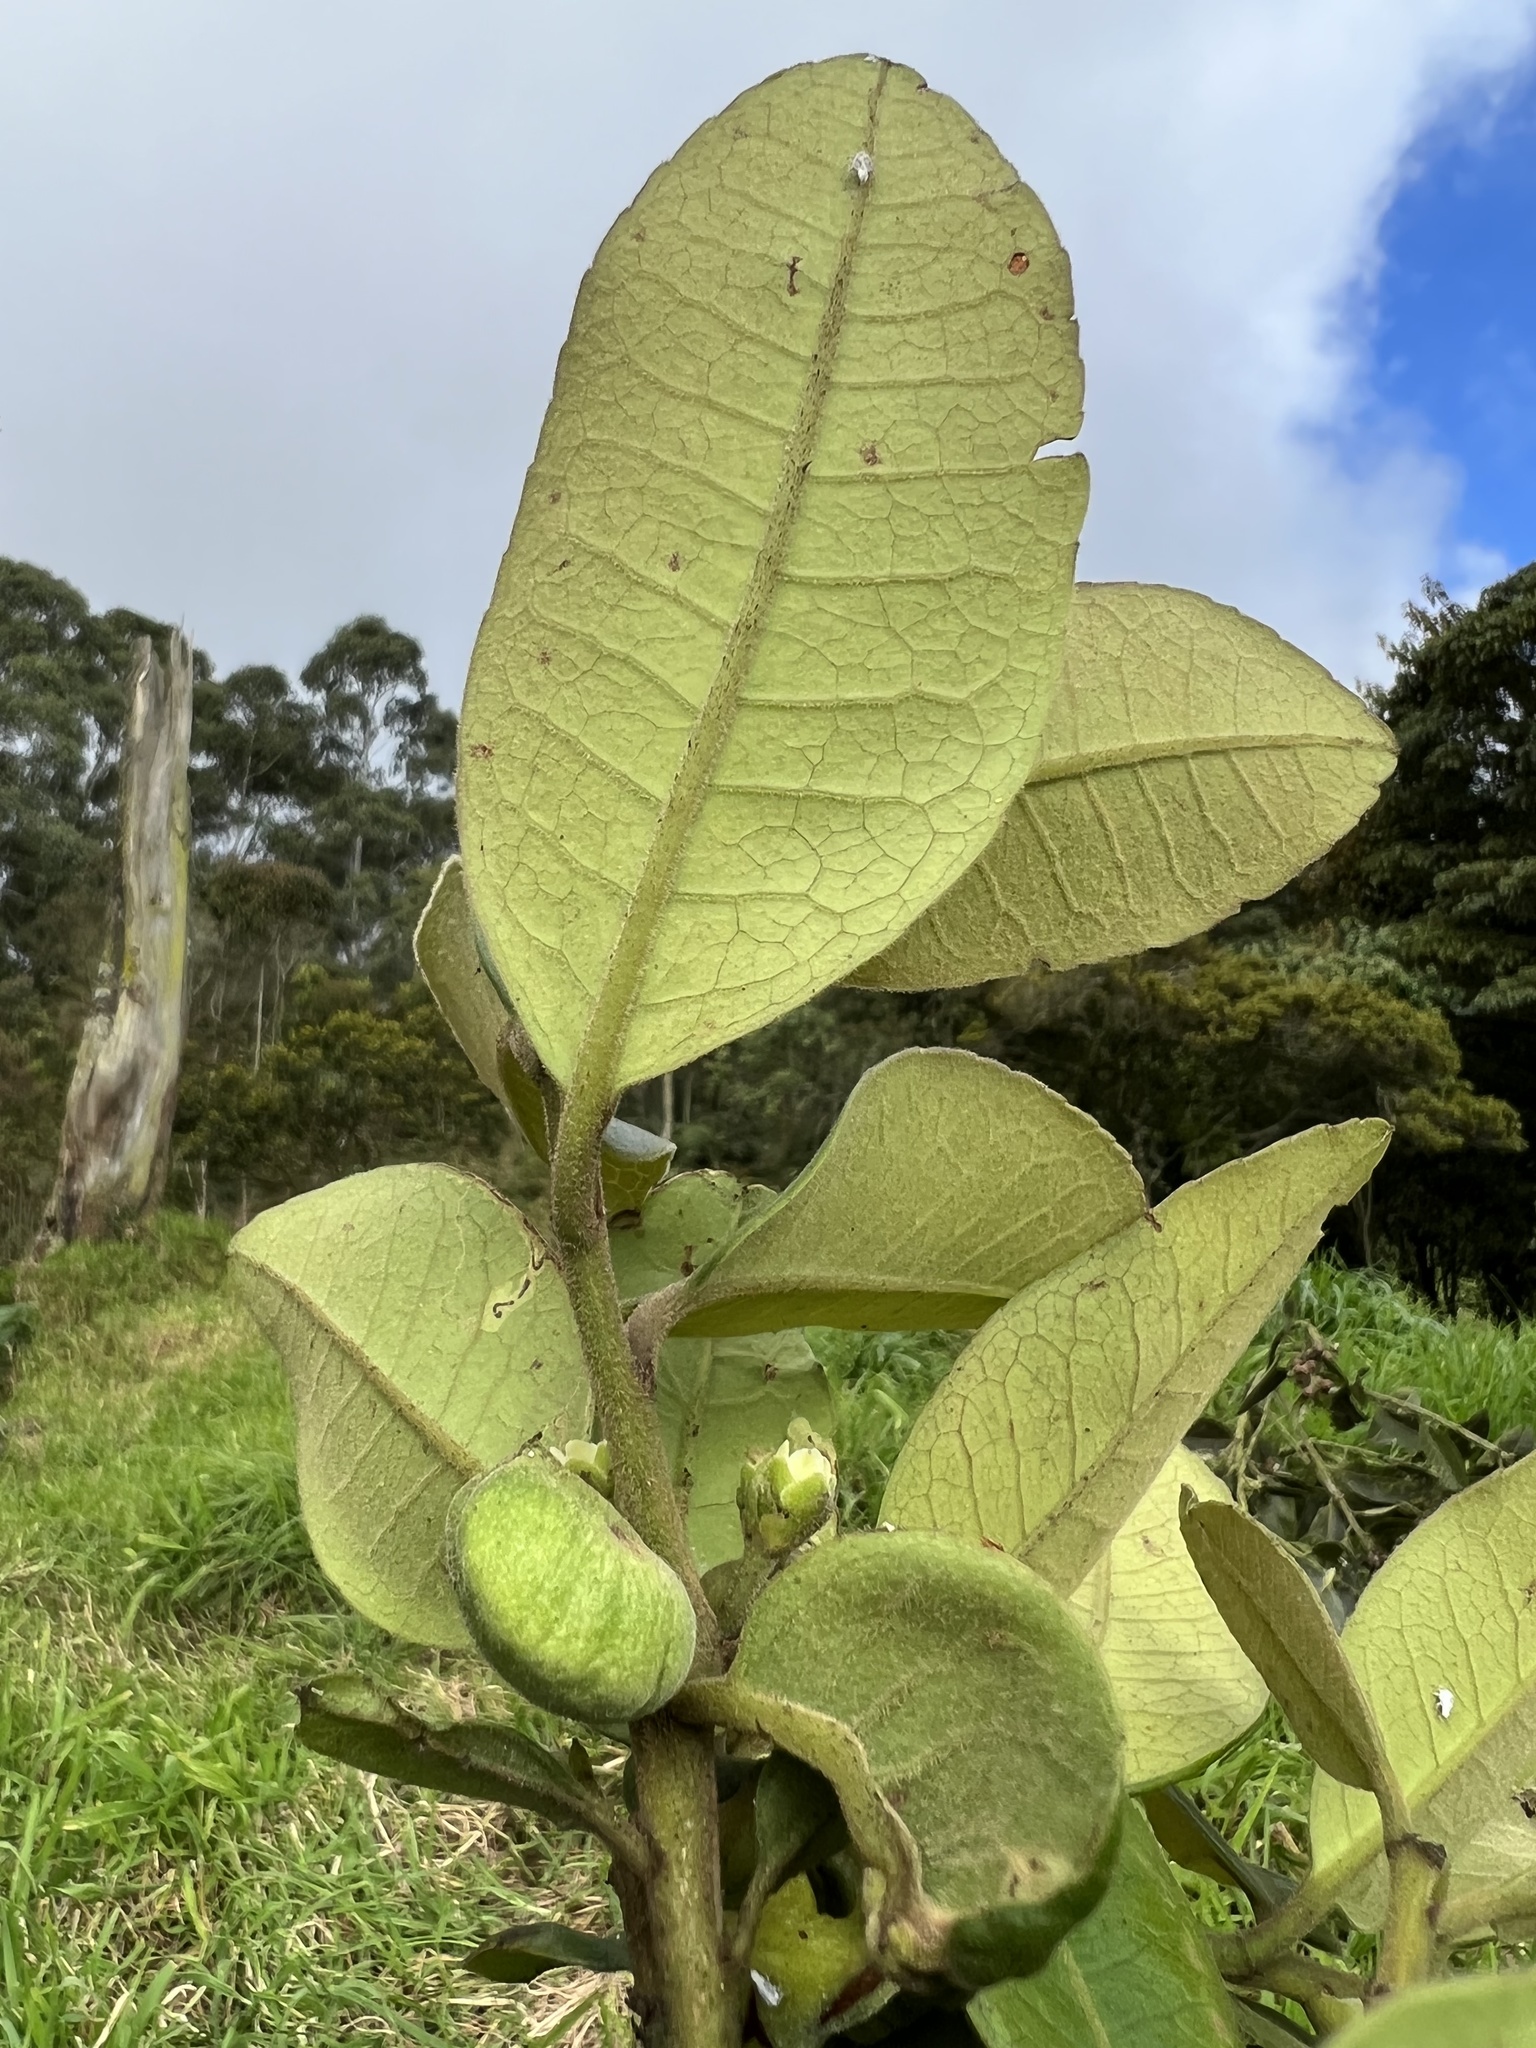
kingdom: Plantae
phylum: Tracheophyta
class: Magnoliopsida
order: Aquifoliales
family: Aquifoliaceae
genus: Ilex
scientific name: Ilex nervosa
